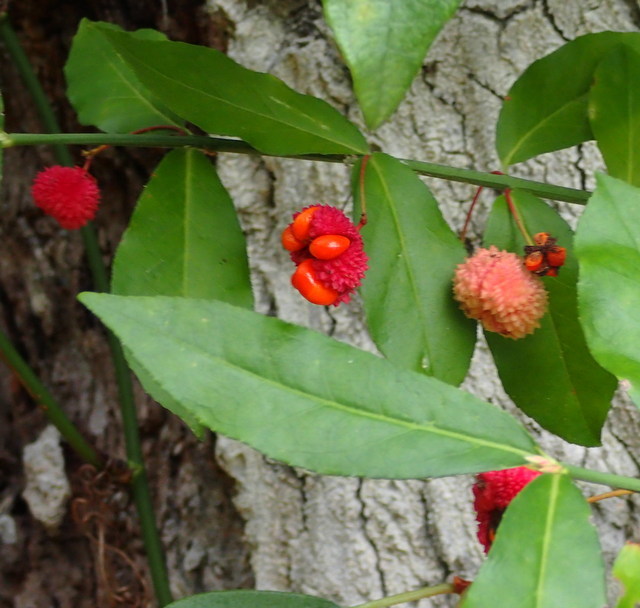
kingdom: Plantae
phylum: Tracheophyta
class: Magnoliopsida
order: Celastrales
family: Celastraceae
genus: Euonymus
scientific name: Euonymus americanus
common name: Bursting-heart
